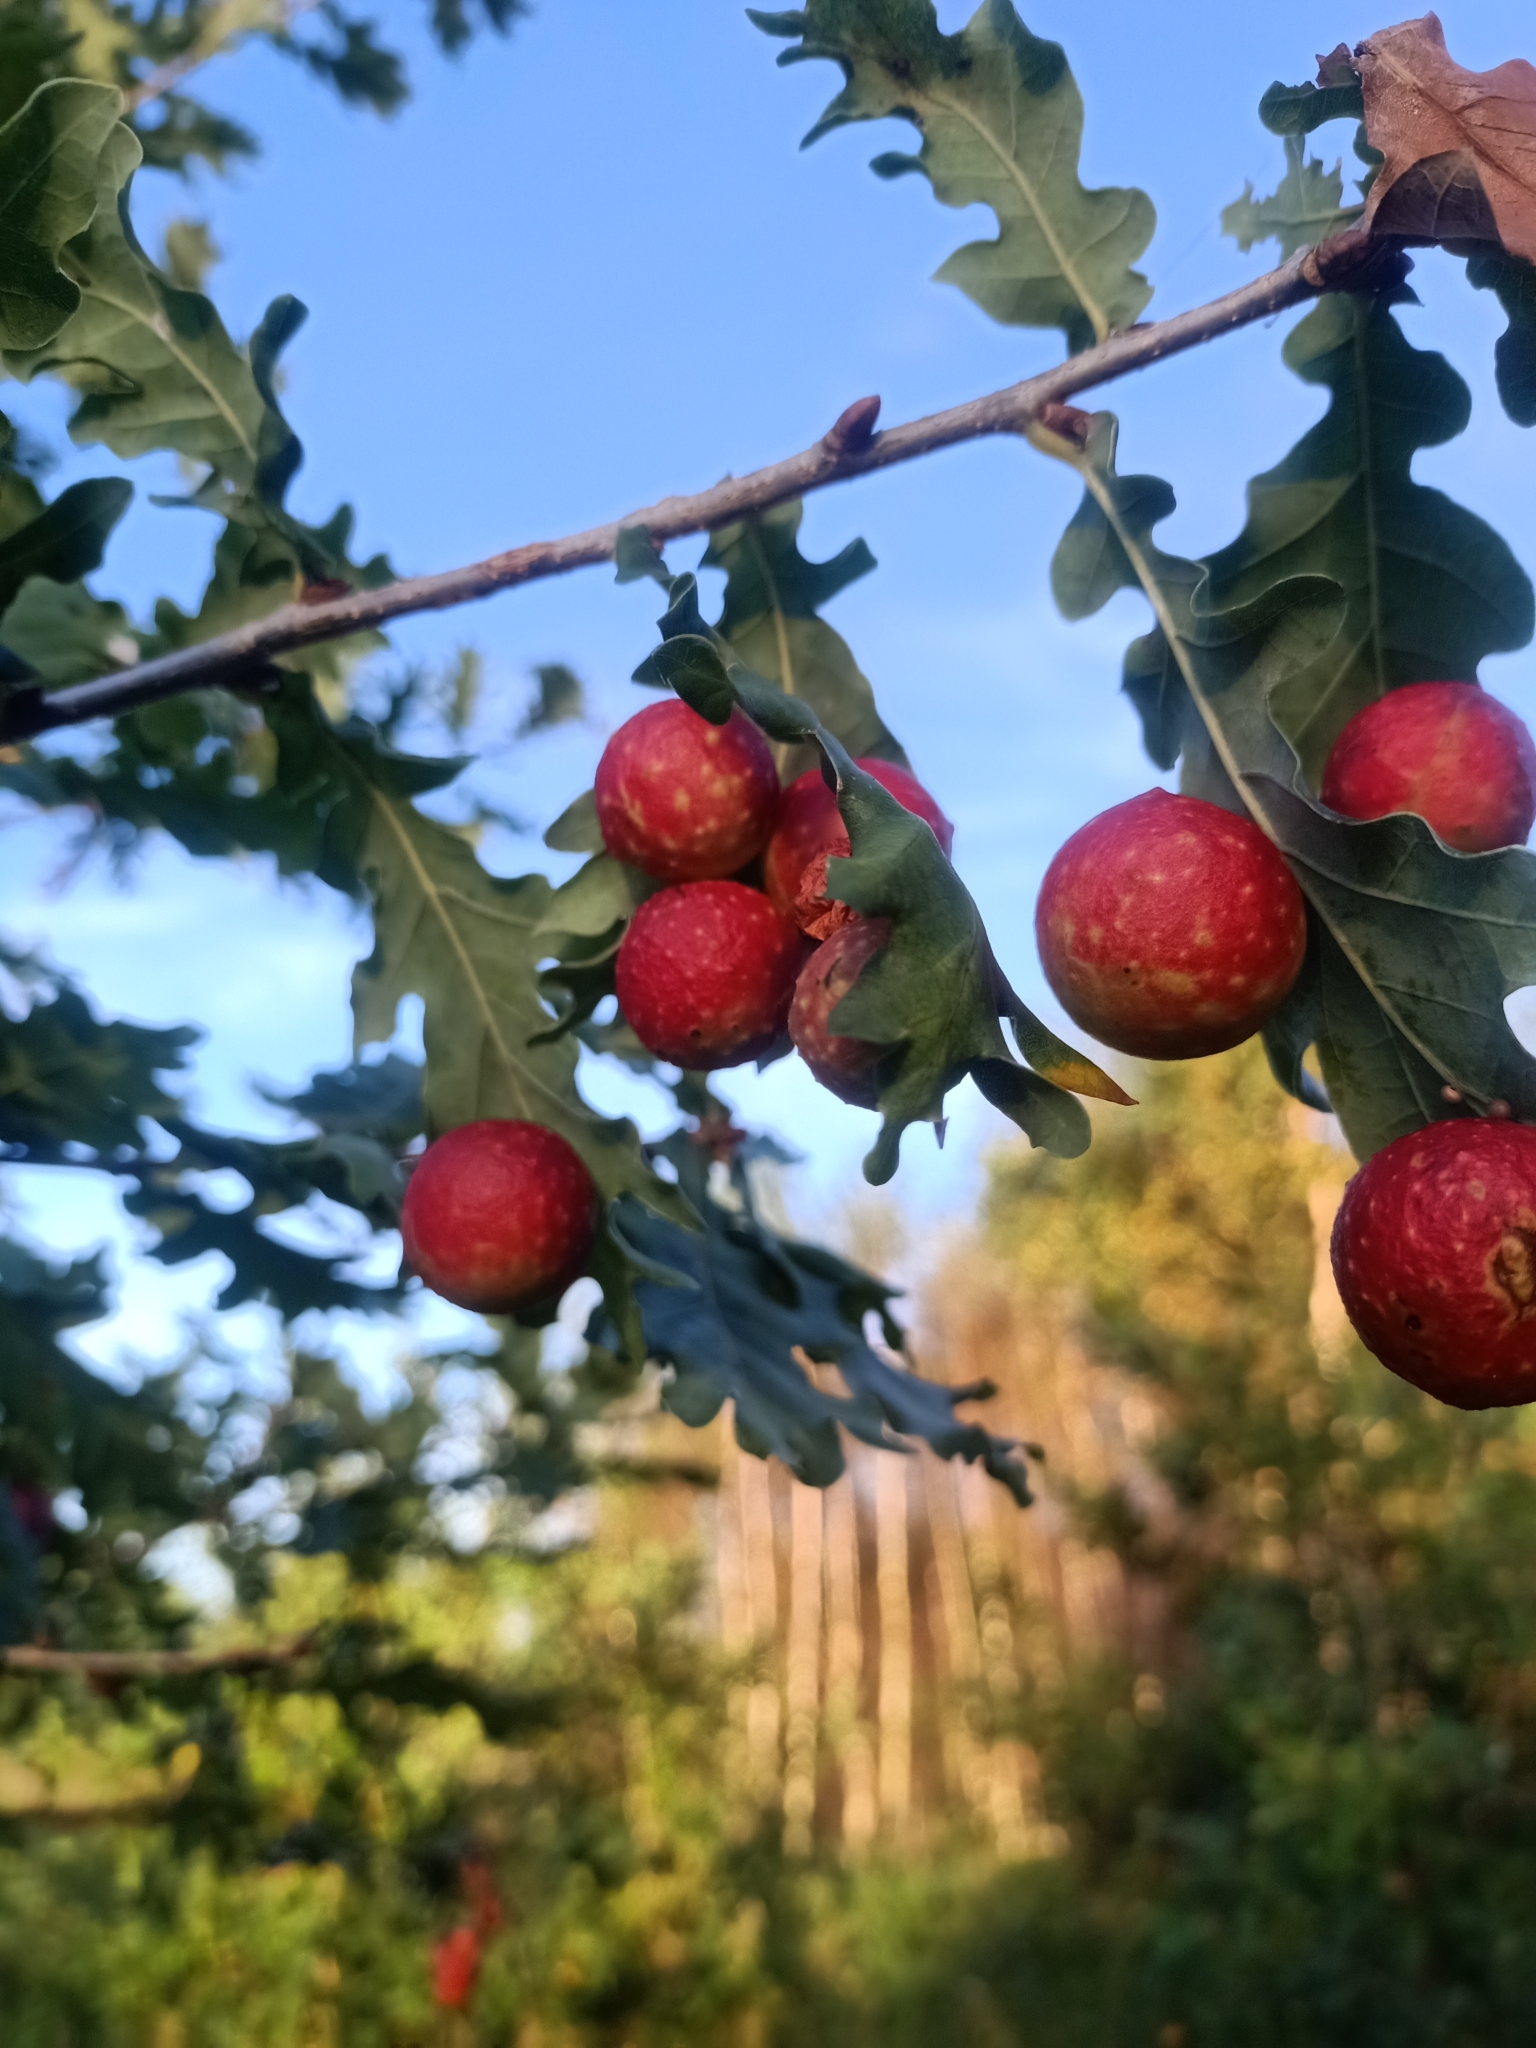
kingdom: Animalia
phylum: Arthropoda
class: Insecta
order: Hymenoptera
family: Cynipidae
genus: Cynips
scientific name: Cynips quercusfolii
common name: Cherry gall
